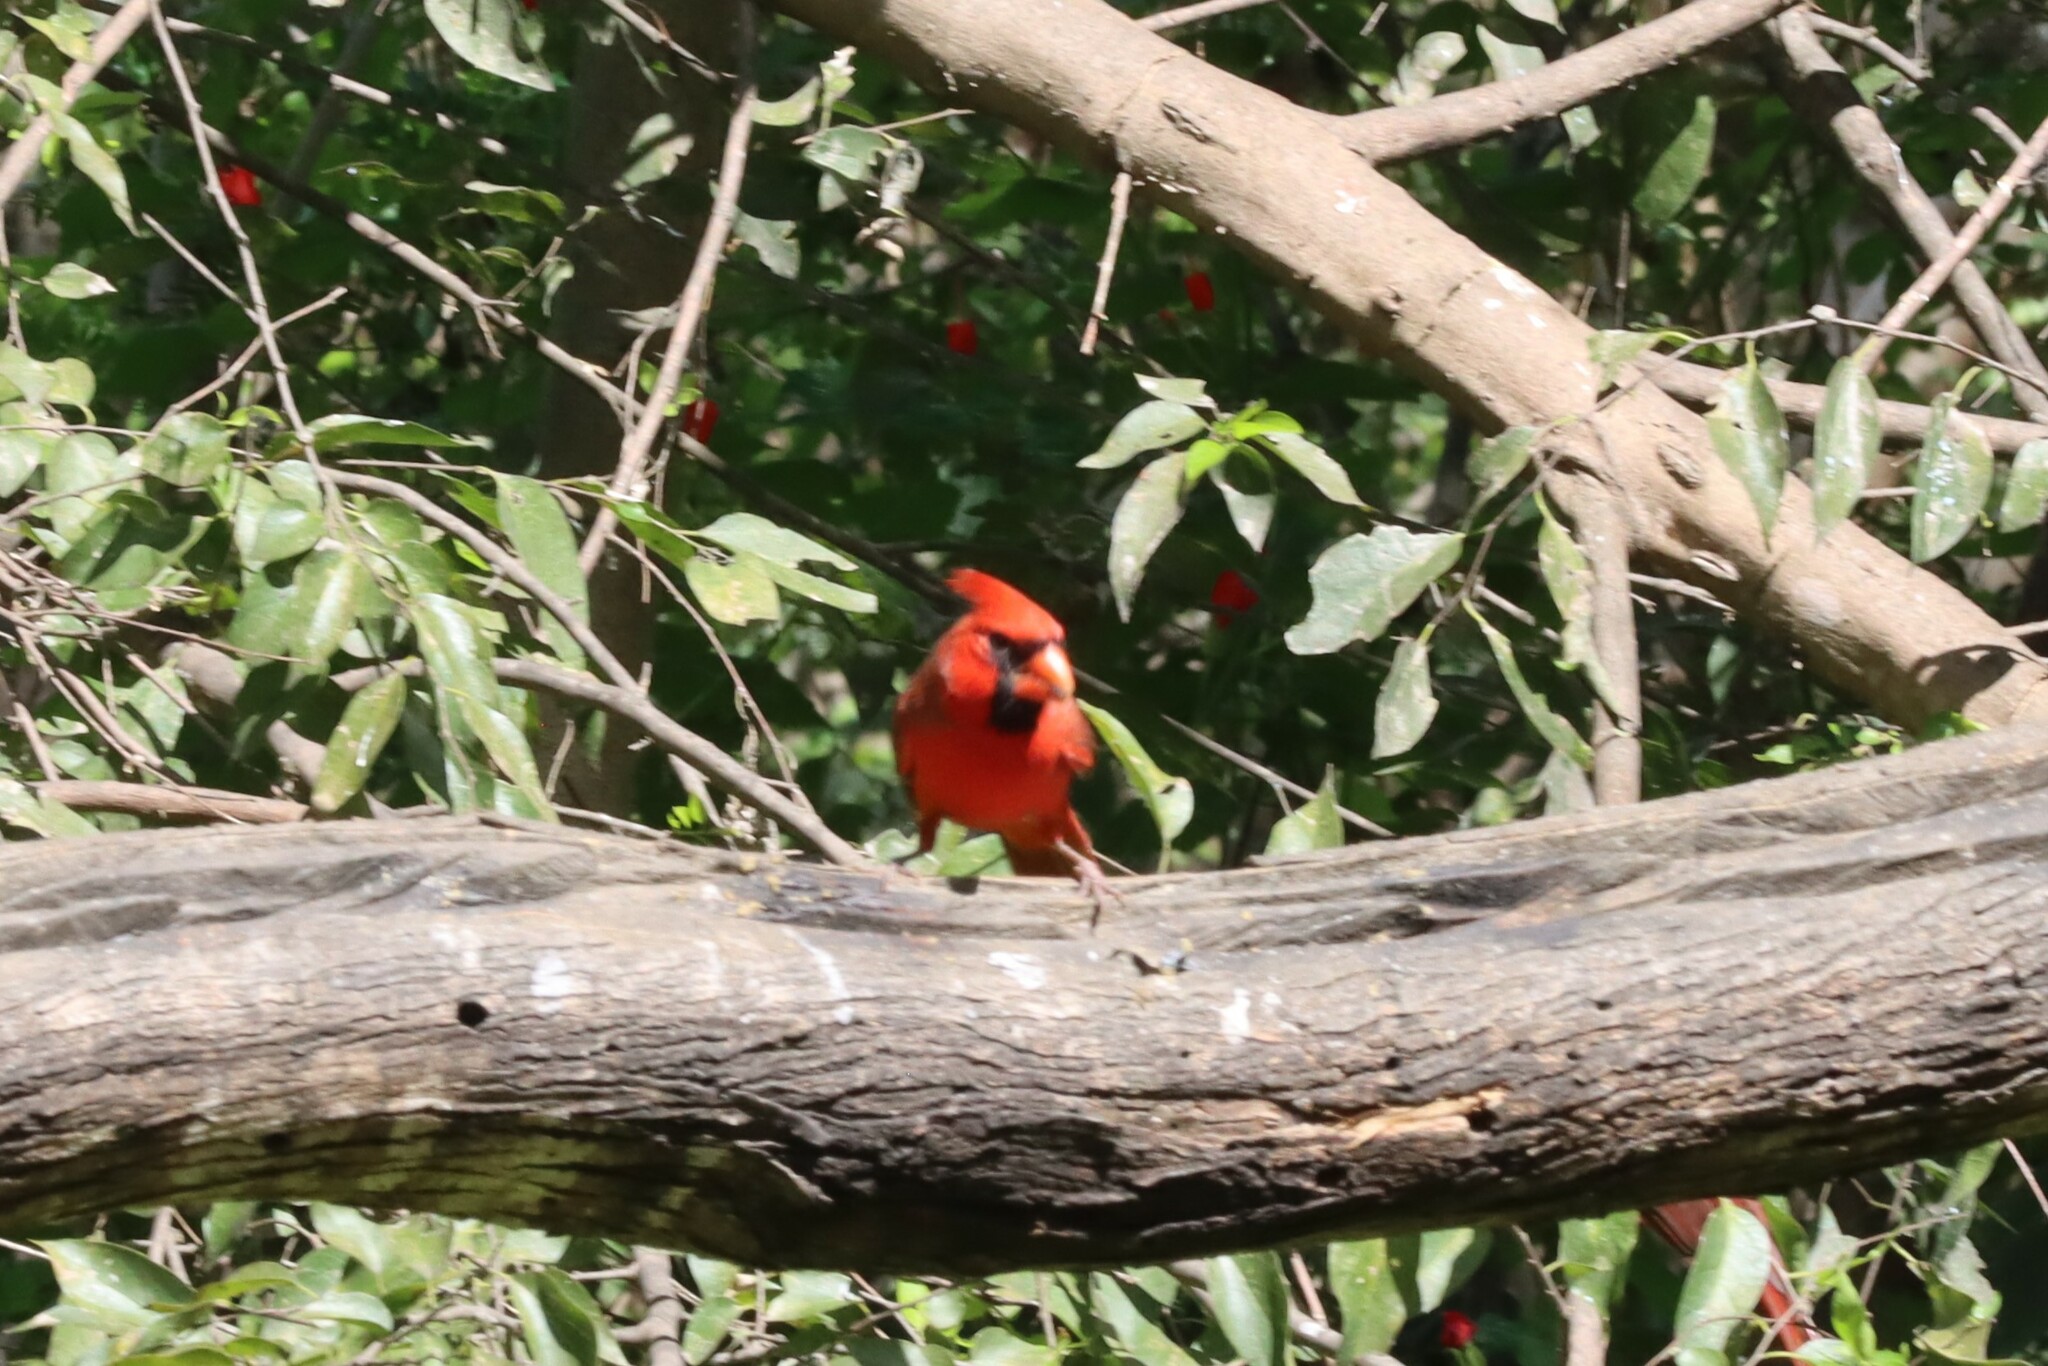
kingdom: Animalia
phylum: Chordata
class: Aves
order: Passeriformes
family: Cardinalidae
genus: Cardinalis
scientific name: Cardinalis cardinalis
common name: Northern cardinal
